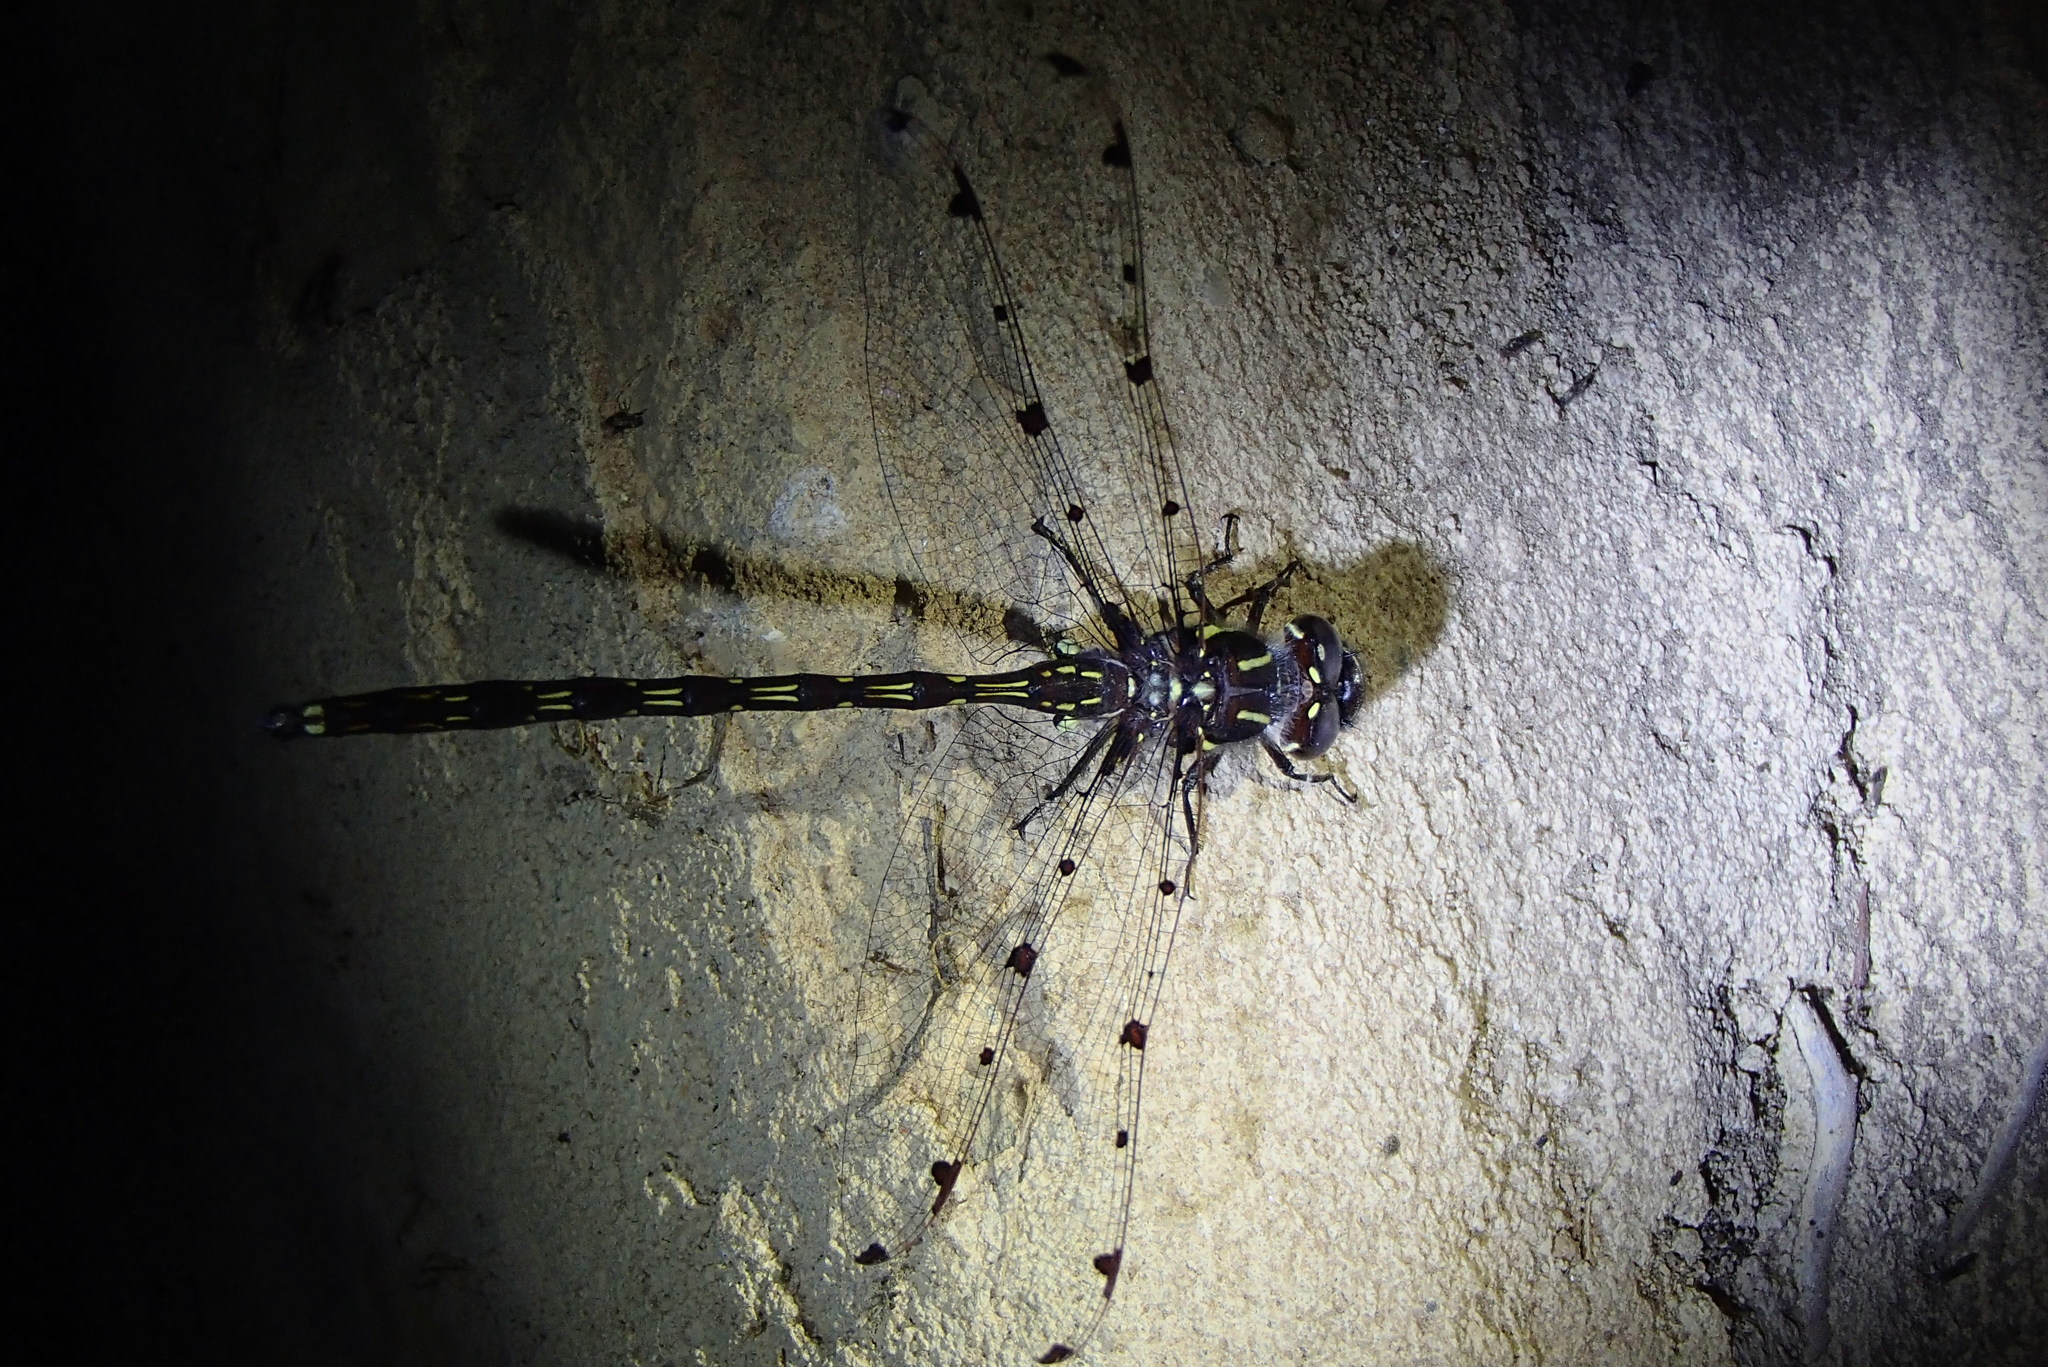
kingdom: Animalia
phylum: Arthropoda
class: Insecta
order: Odonata
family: Austropetaliidae
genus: Austropetalia
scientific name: Austropetalia patricia
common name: Waterfall redspot
